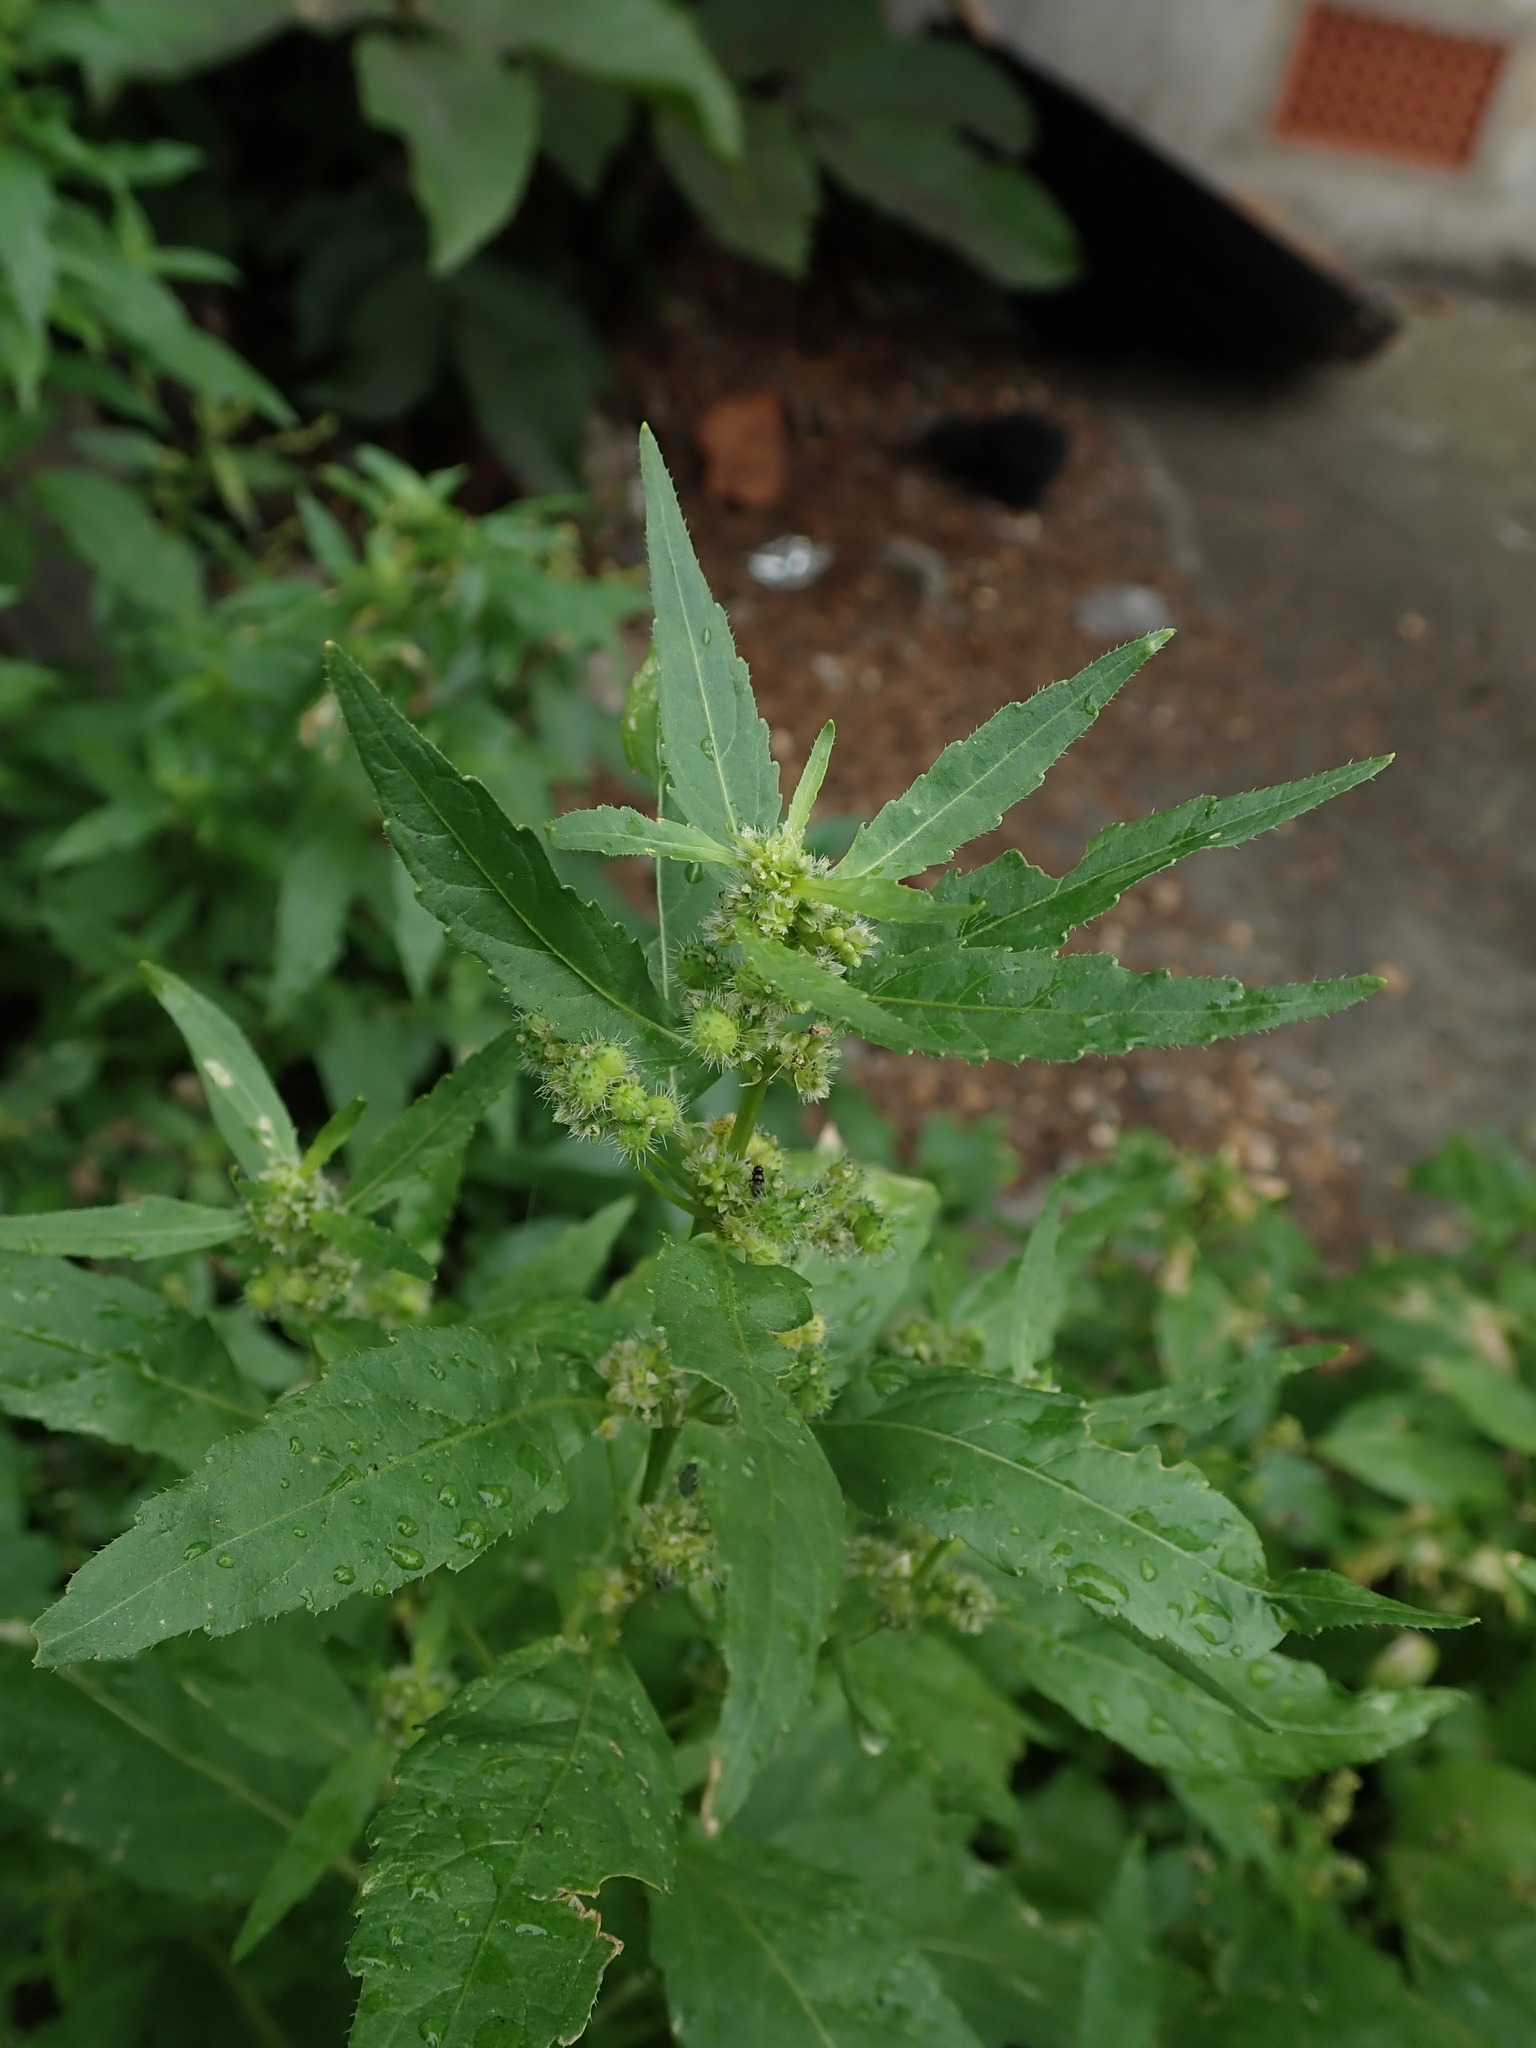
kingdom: Plantae
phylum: Tracheophyta
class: Magnoliopsida
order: Malpighiales
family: Euphorbiaceae
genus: Mercurialis
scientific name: Mercurialis annua
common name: Annual mercury
